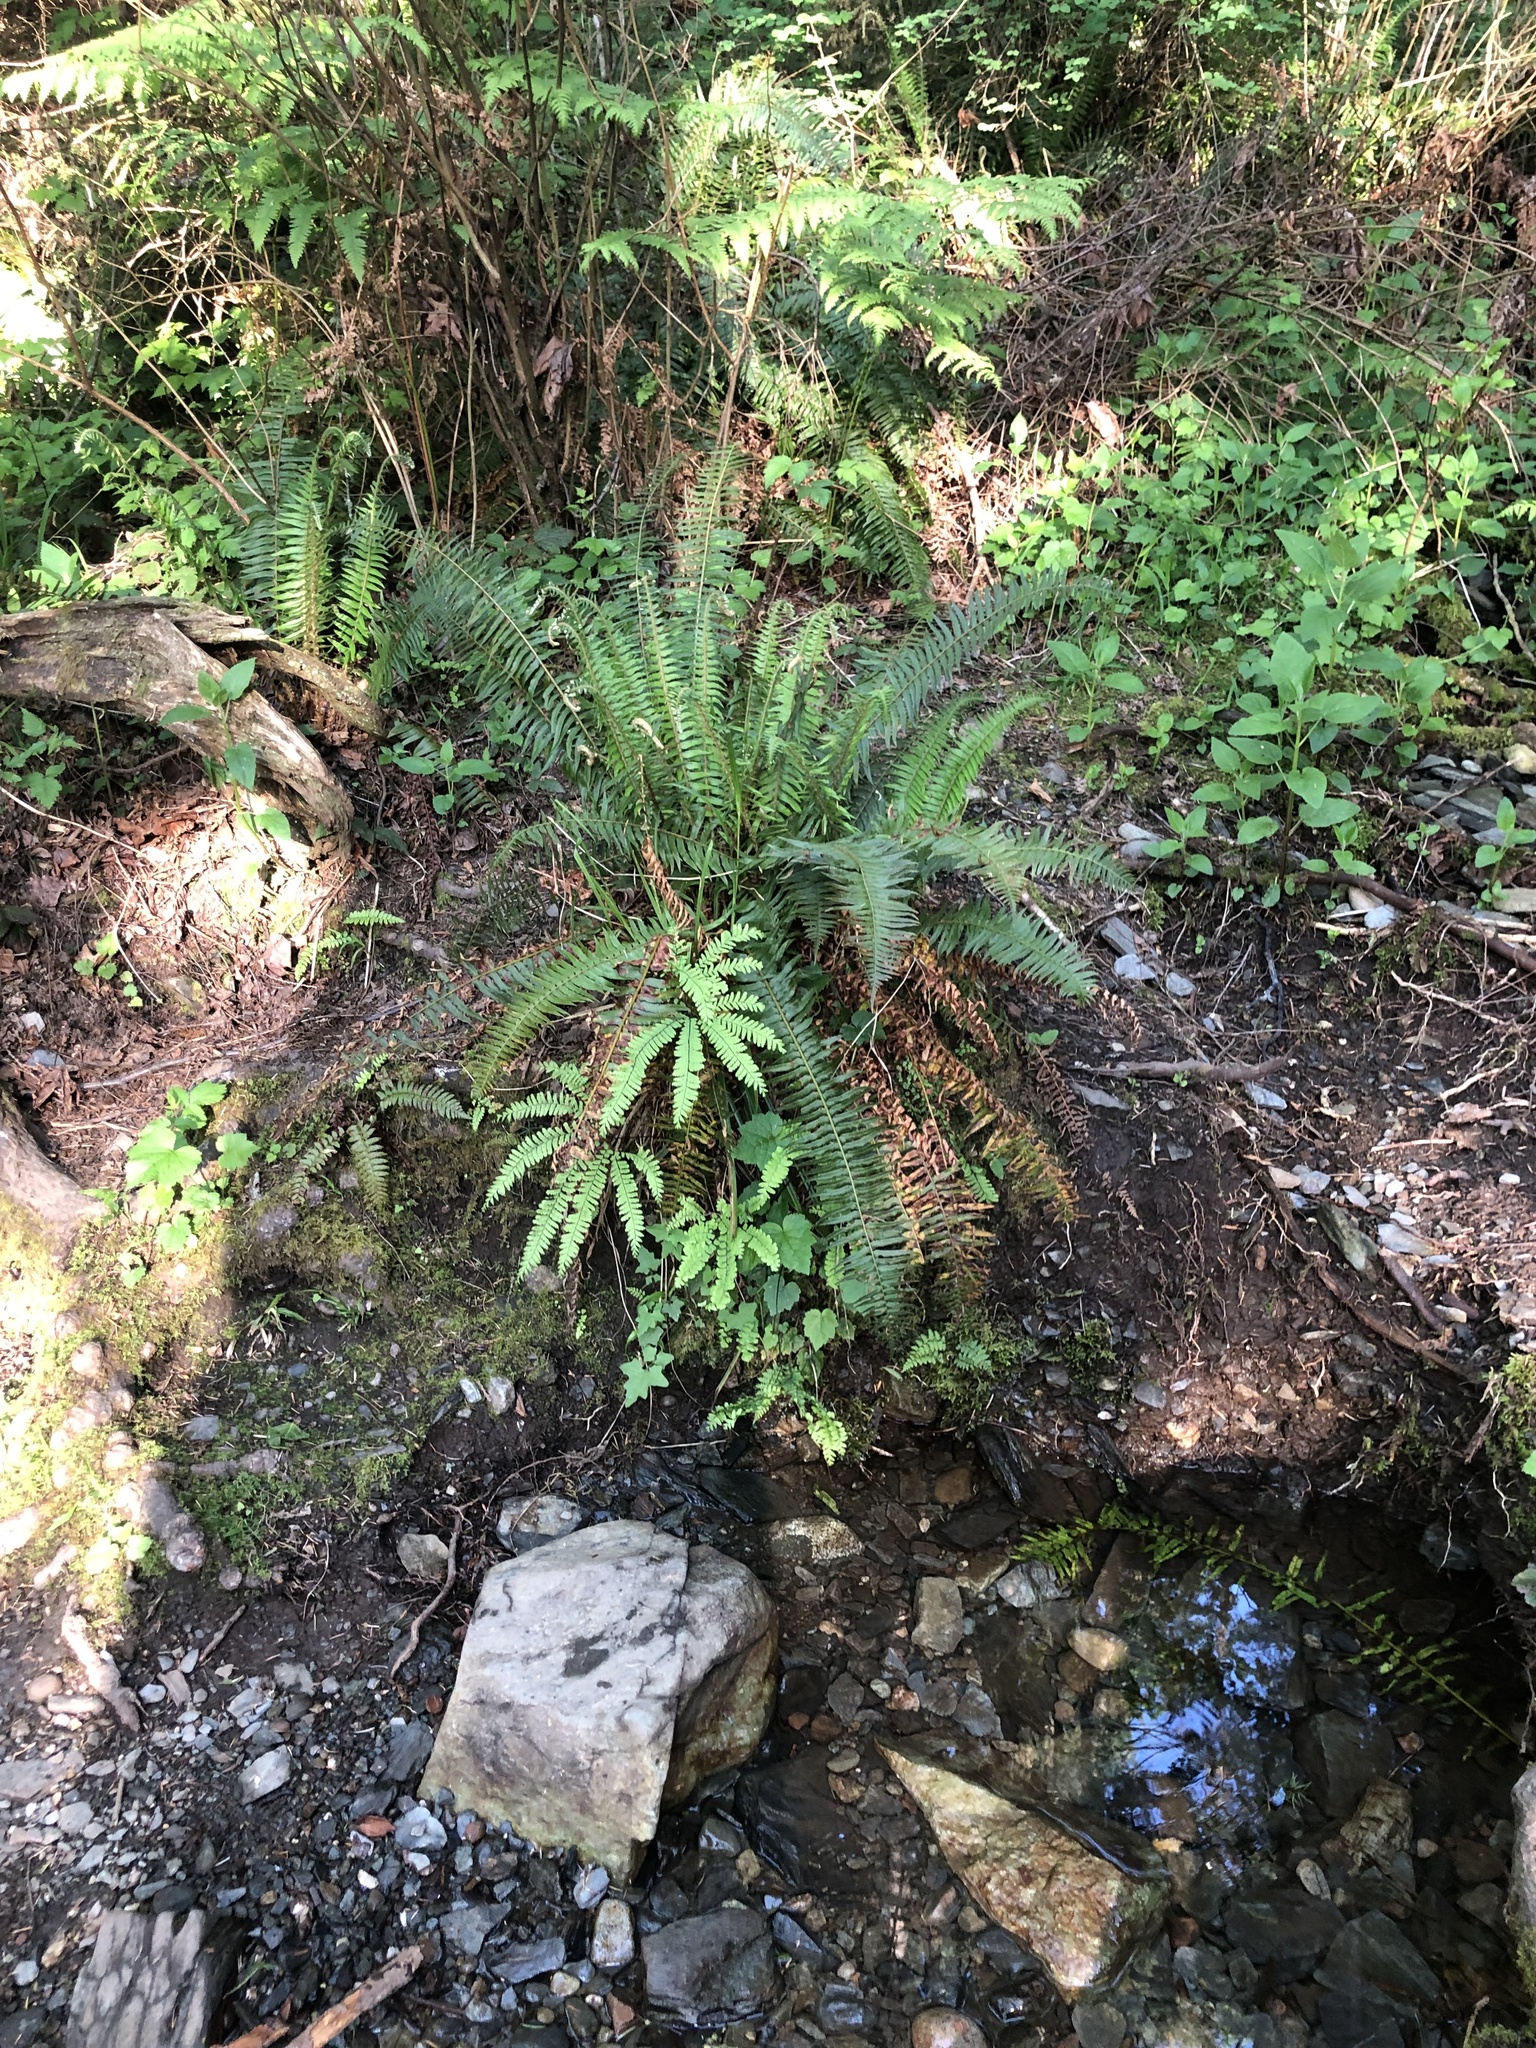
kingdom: Plantae
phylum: Tracheophyta
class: Polypodiopsida
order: Polypodiales
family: Pteridaceae
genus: Adiantum
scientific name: Adiantum aleuticum
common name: Aleutian maidenhair fern
